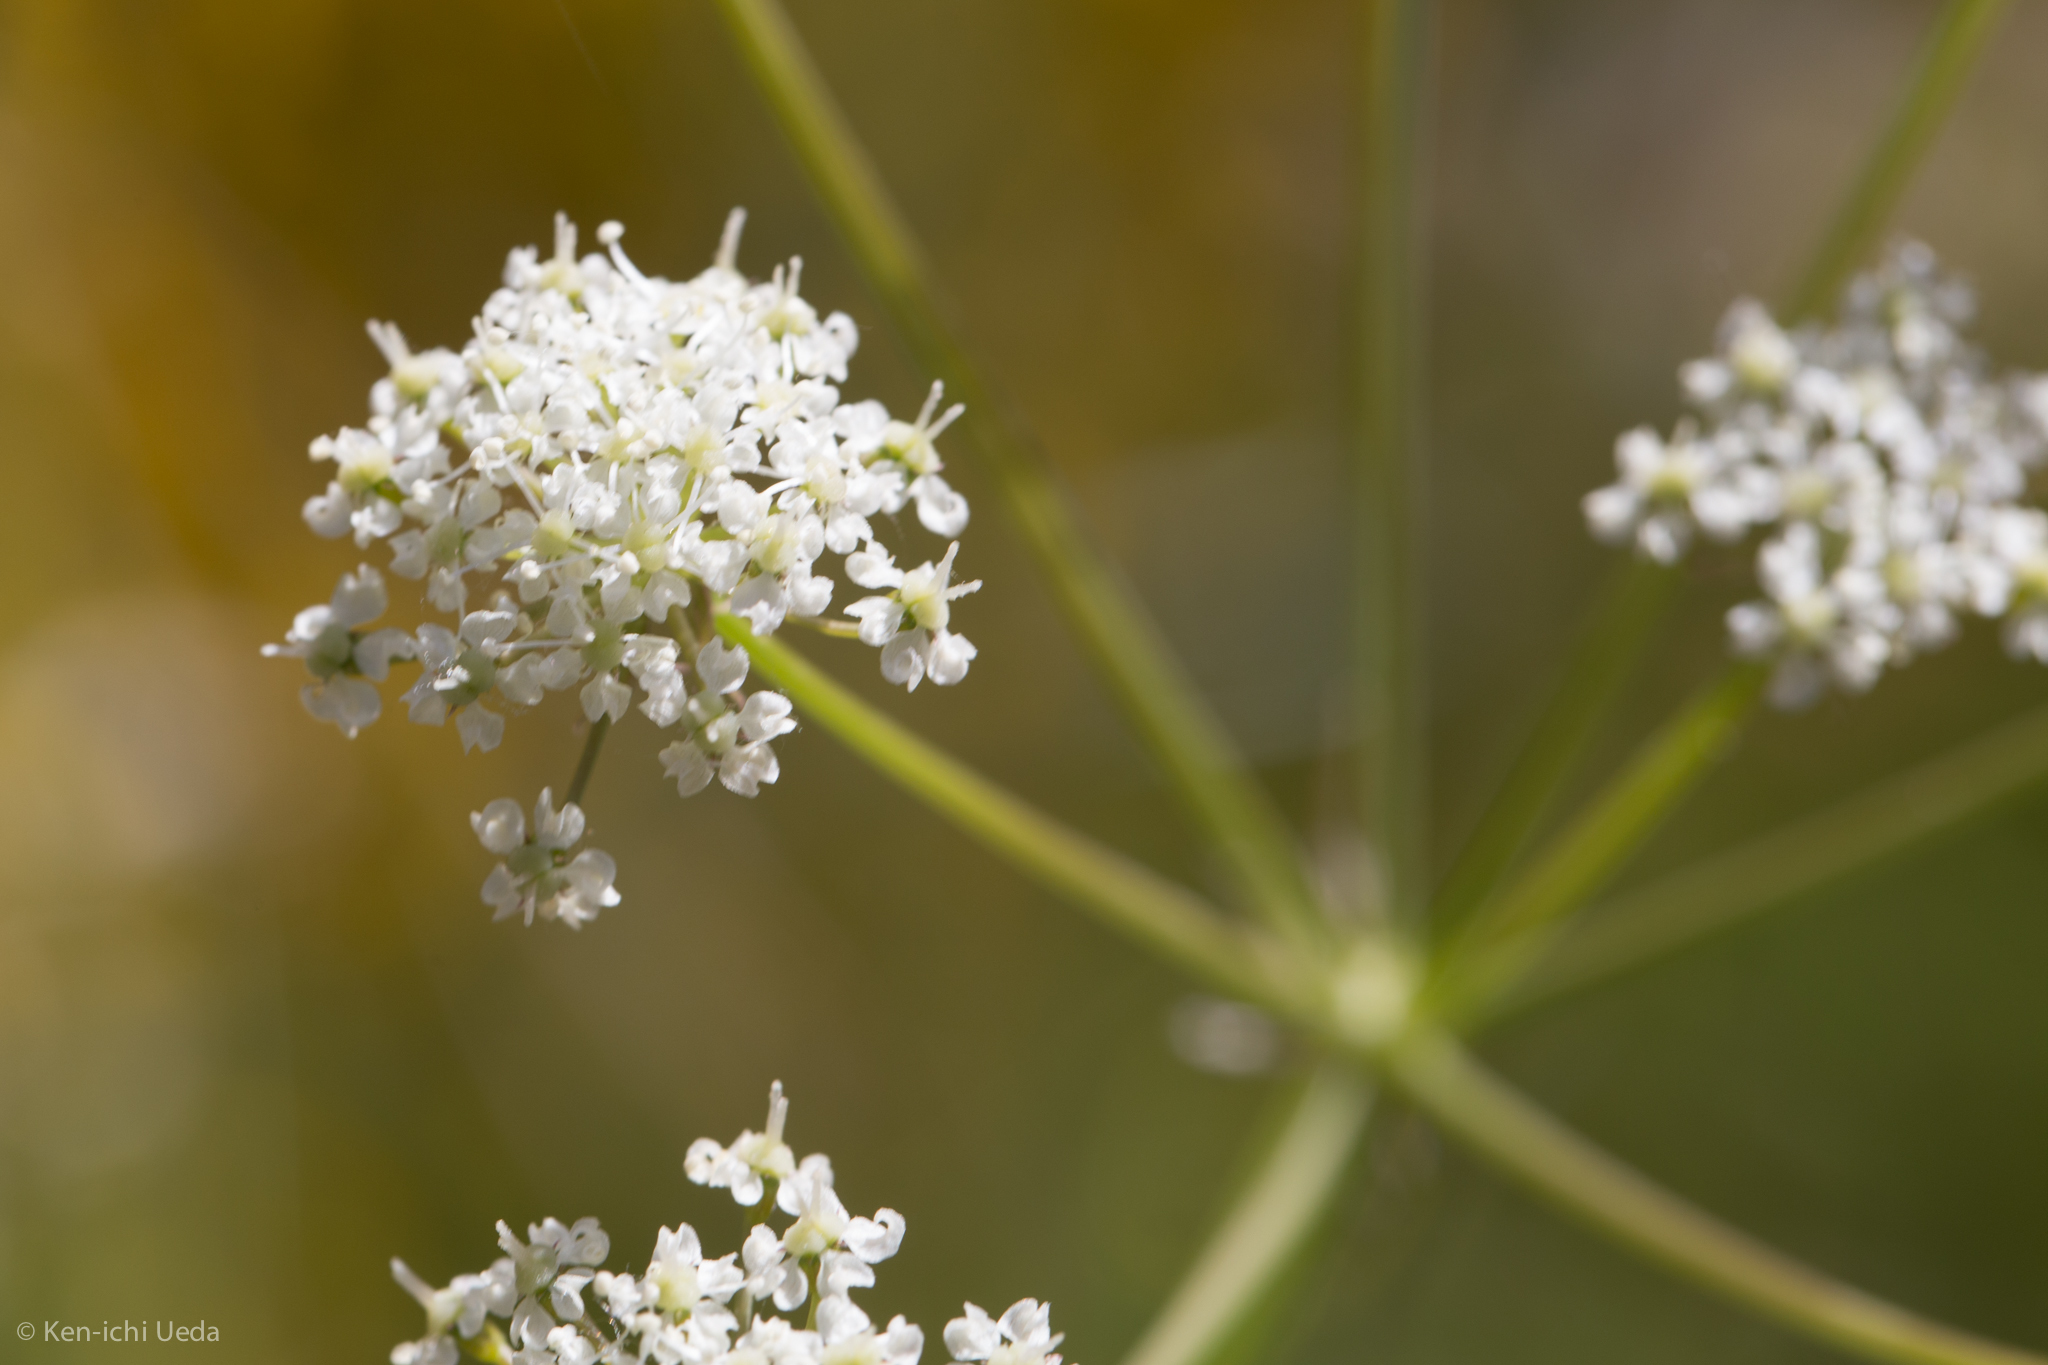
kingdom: Plantae
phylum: Tracheophyta
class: Magnoliopsida
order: Apiales
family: Apiaceae
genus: Perideridia
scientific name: Perideridia californica
